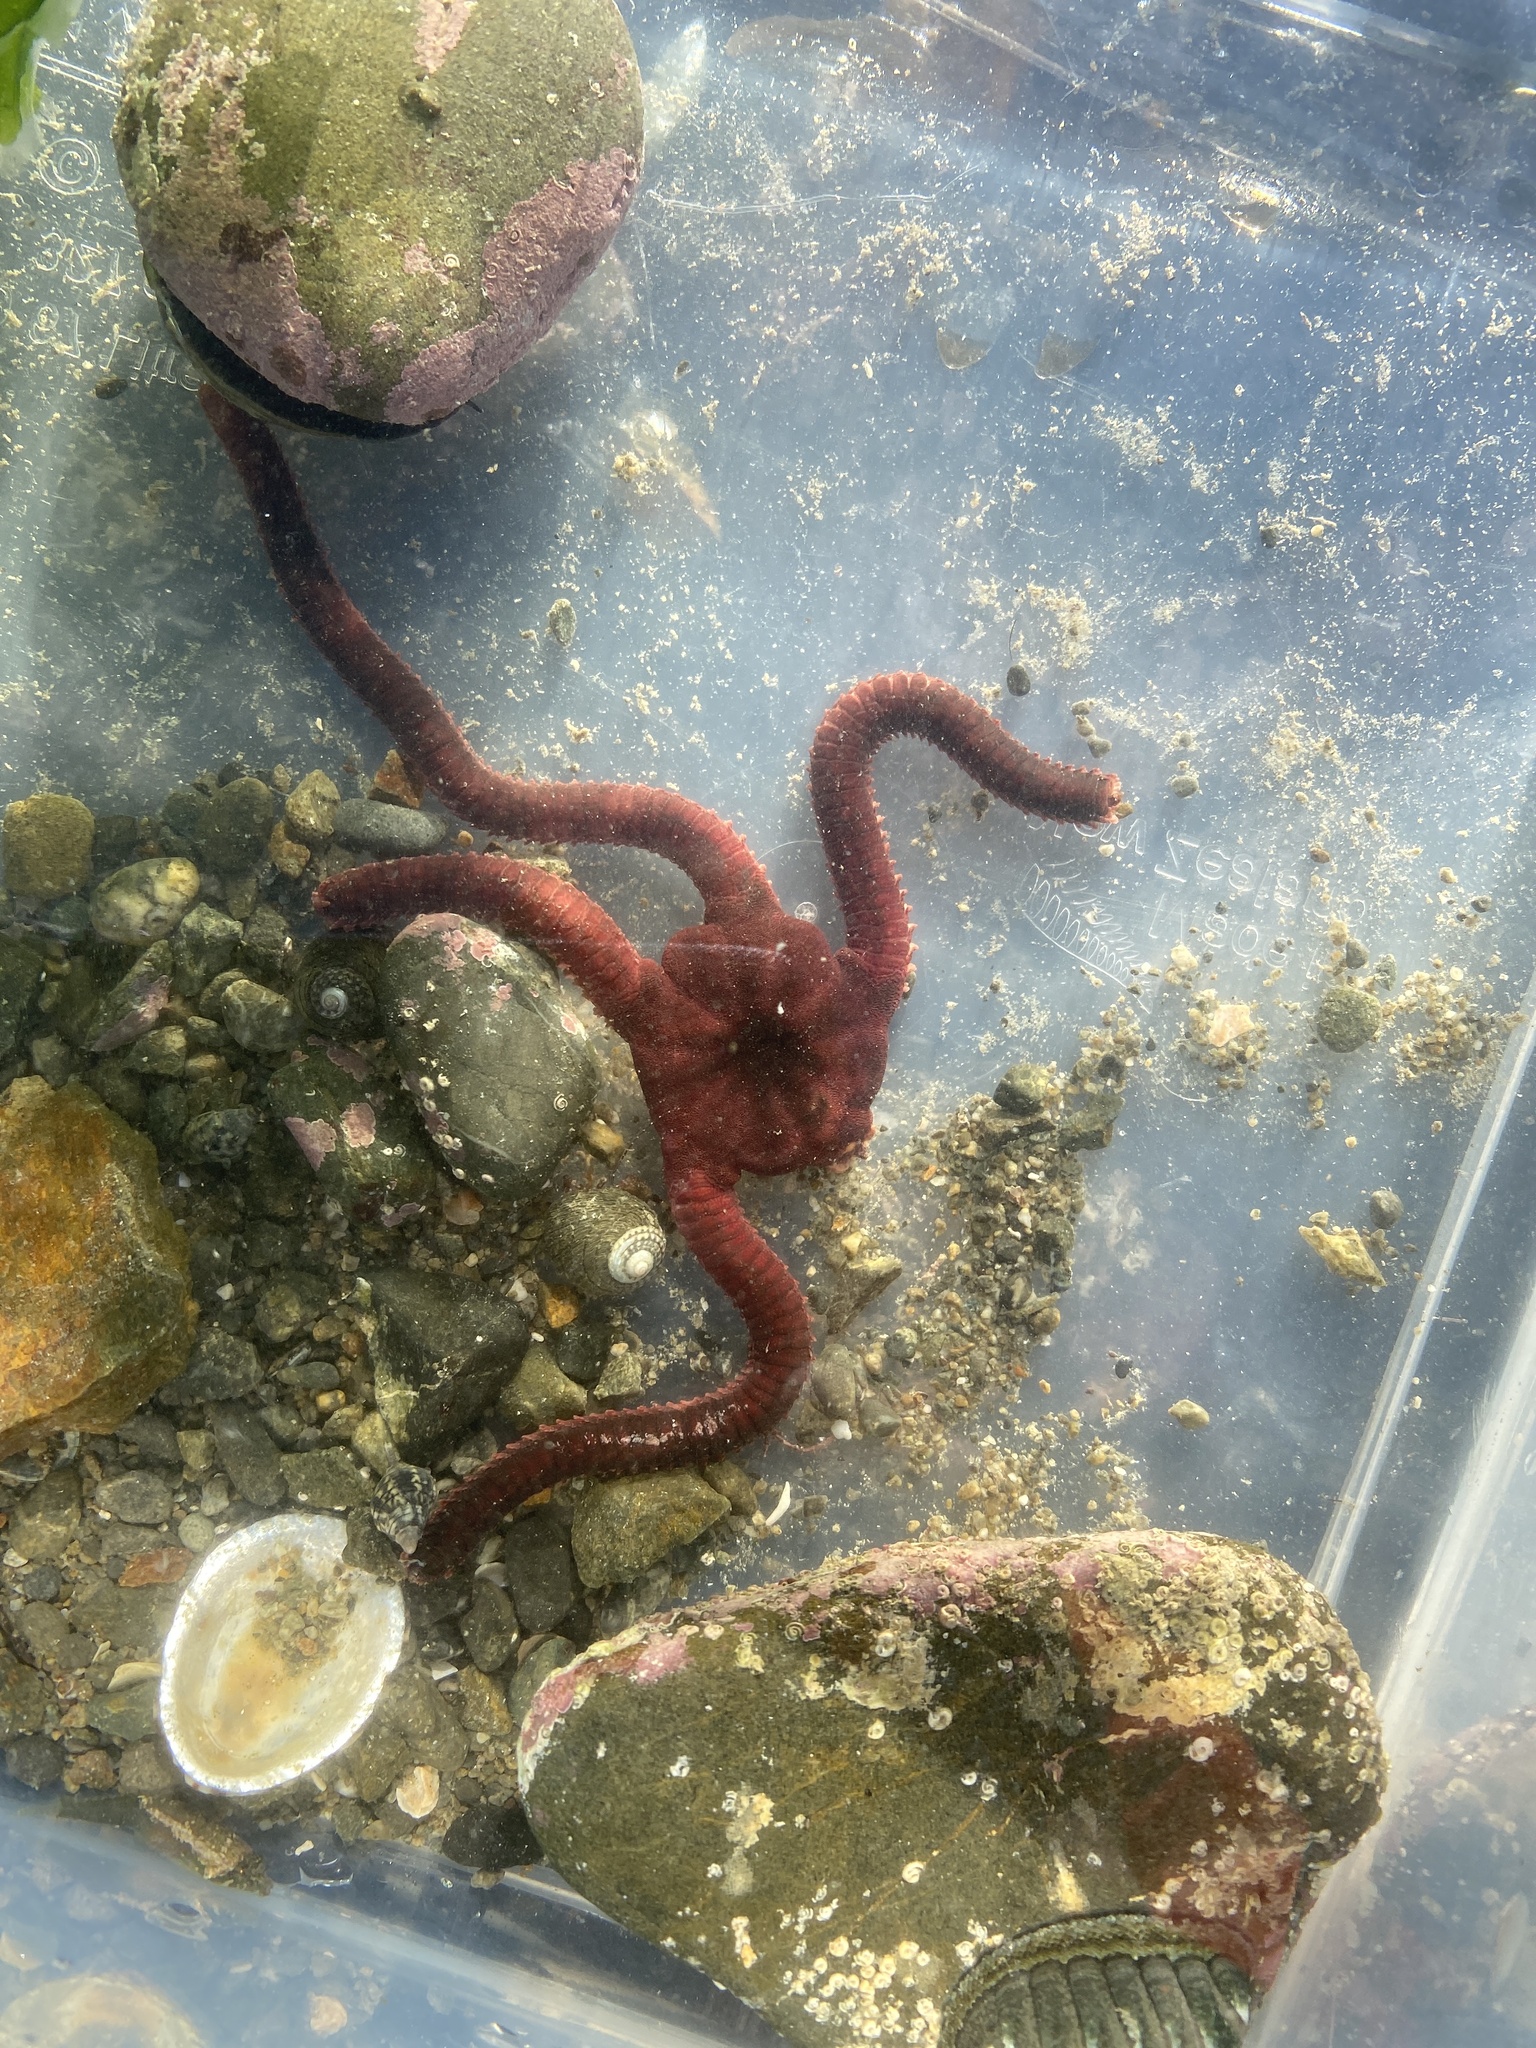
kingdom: Animalia
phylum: Echinodermata
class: Ophiuroidea
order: Ophiacanthida
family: Ophiodermatidae
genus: Ophiopsammus
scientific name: Ophiopsammus maculata
